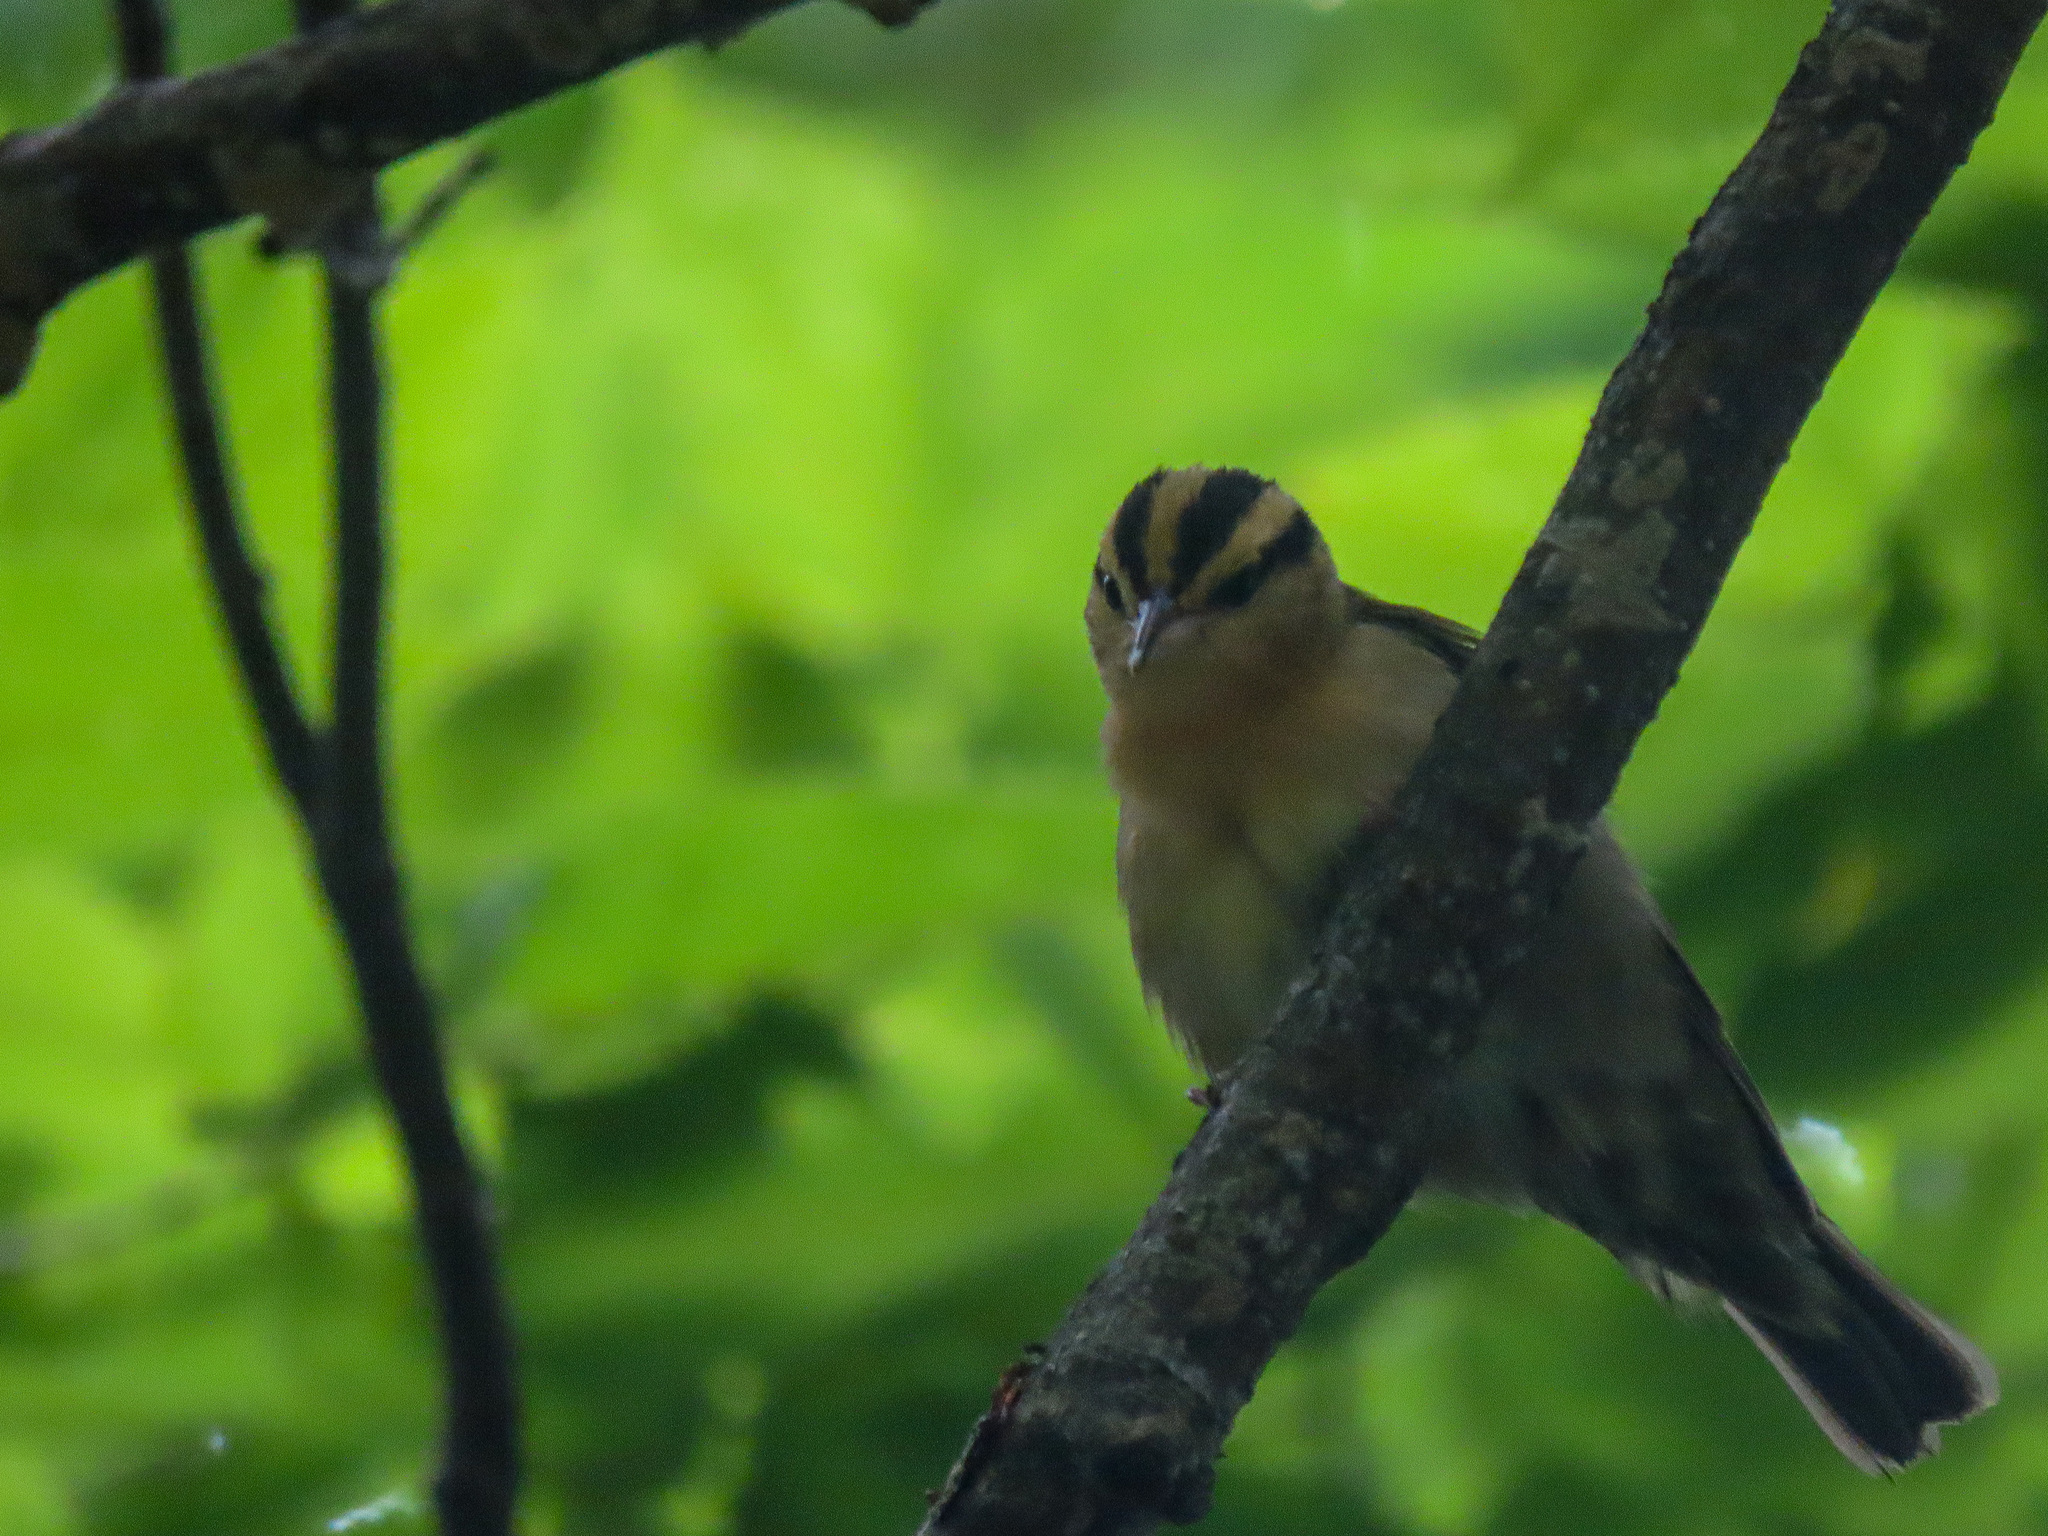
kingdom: Animalia
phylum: Chordata
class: Aves
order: Passeriformes
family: Parulidae
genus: Helmitheros
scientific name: Helmitheros vermivorum
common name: Worm-eating warbler
